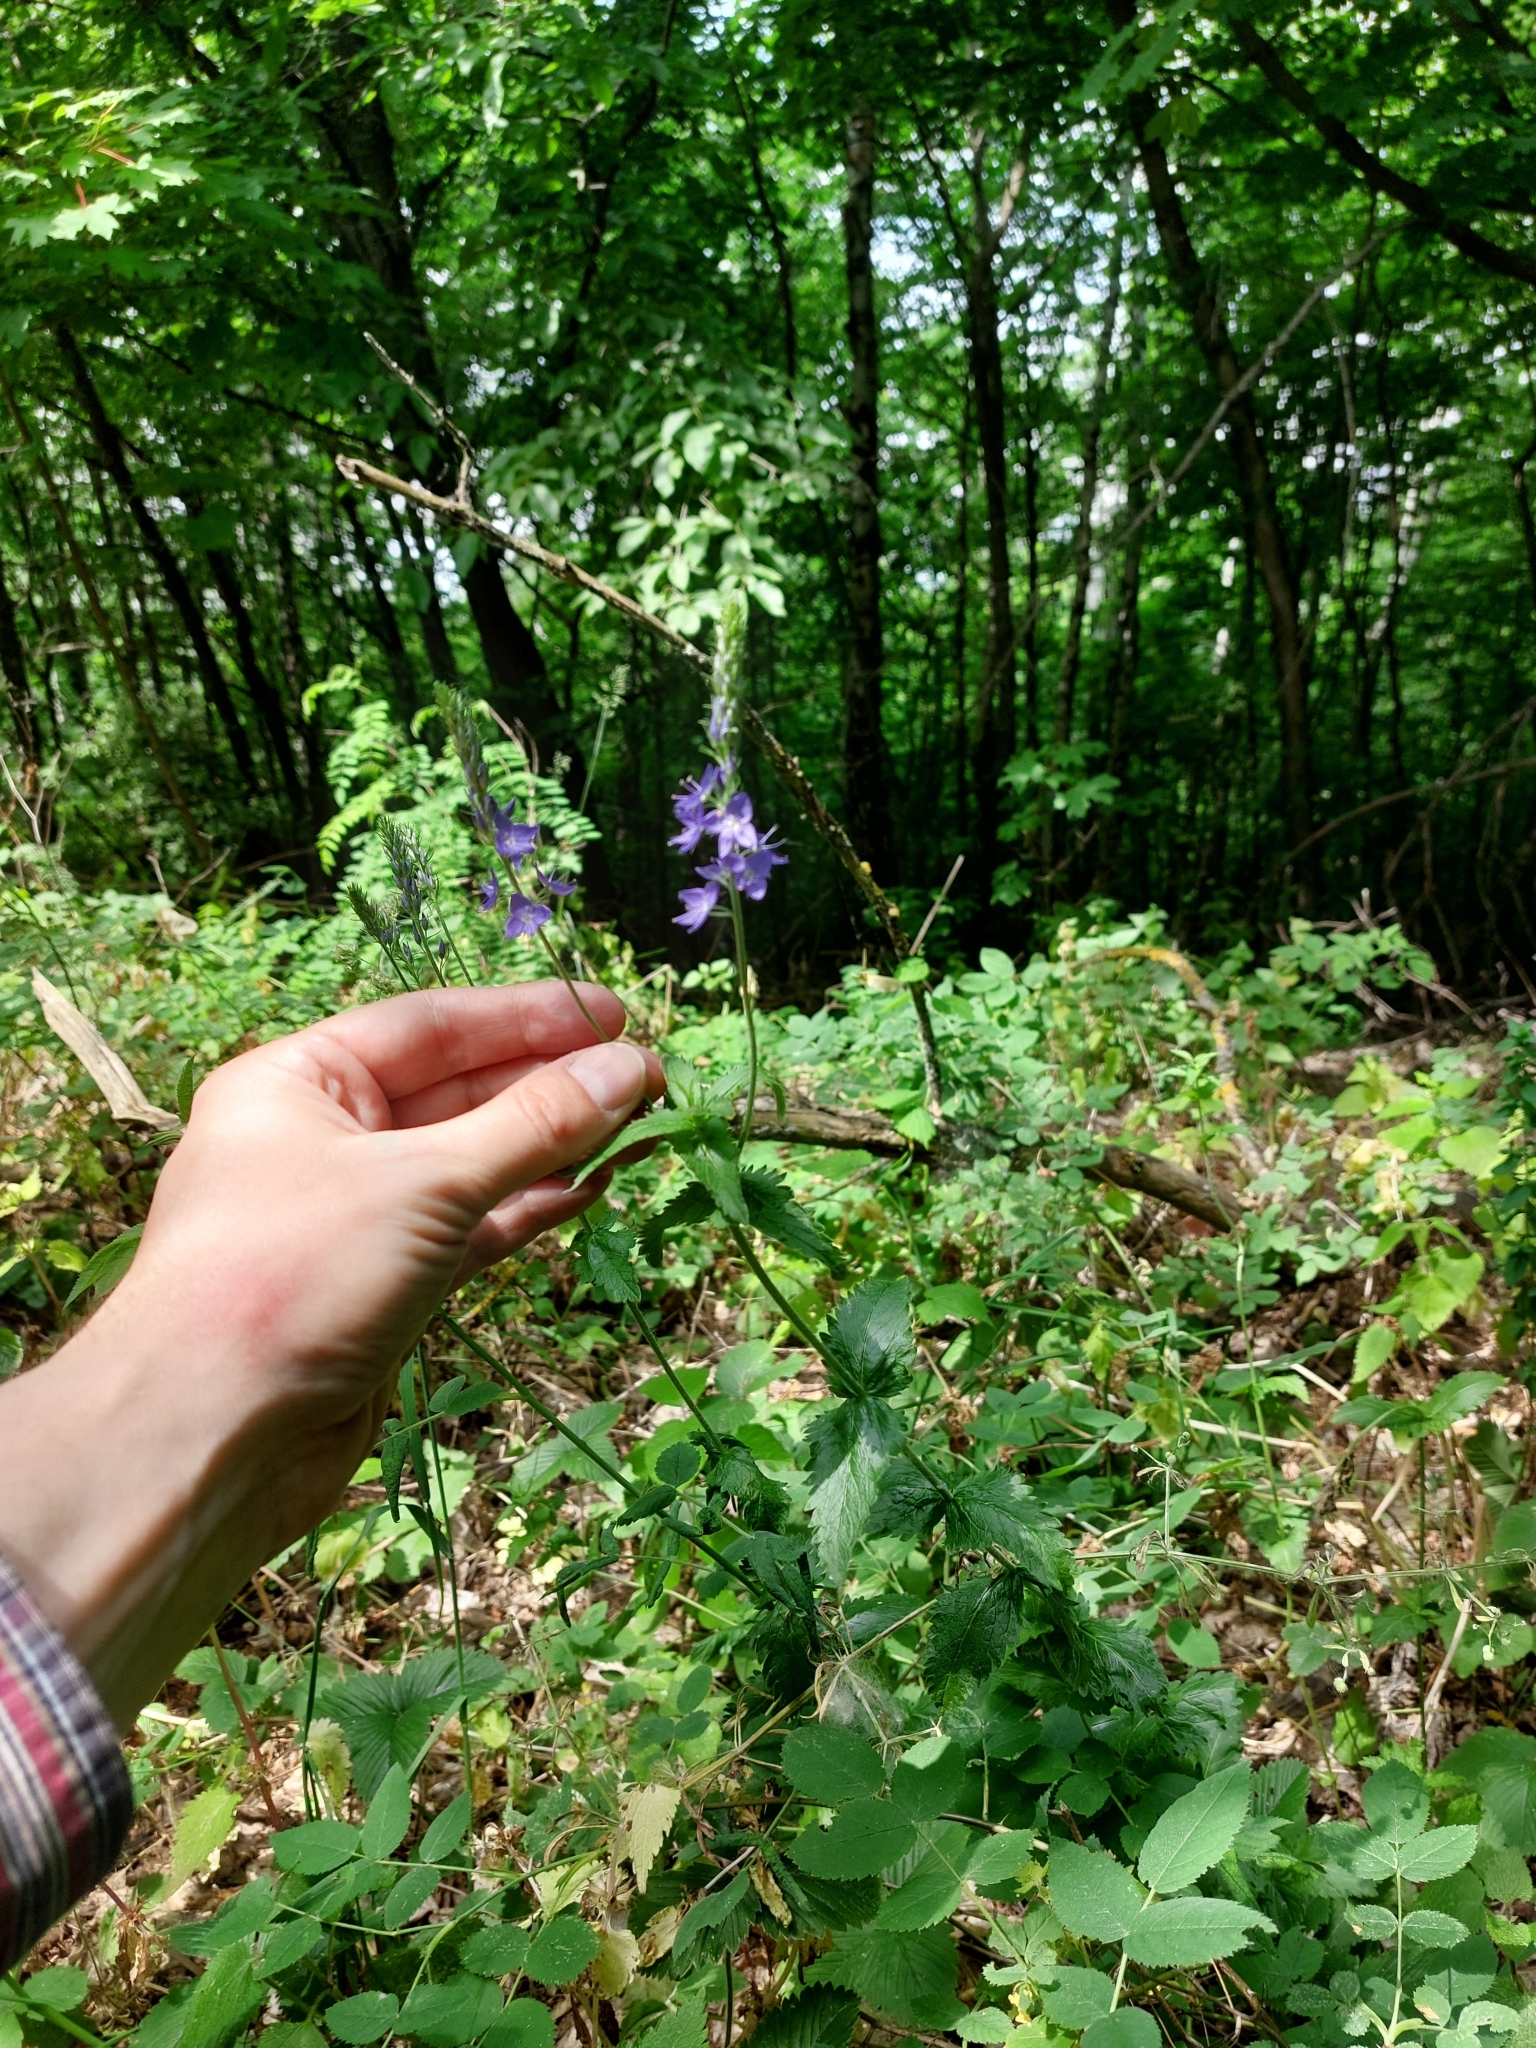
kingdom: Plantae
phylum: Tracheophyta
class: Magnoliopsida
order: Lamiales
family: Plantaginaceae
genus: Veronica
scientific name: Veronica teucrium
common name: Large speedwell
